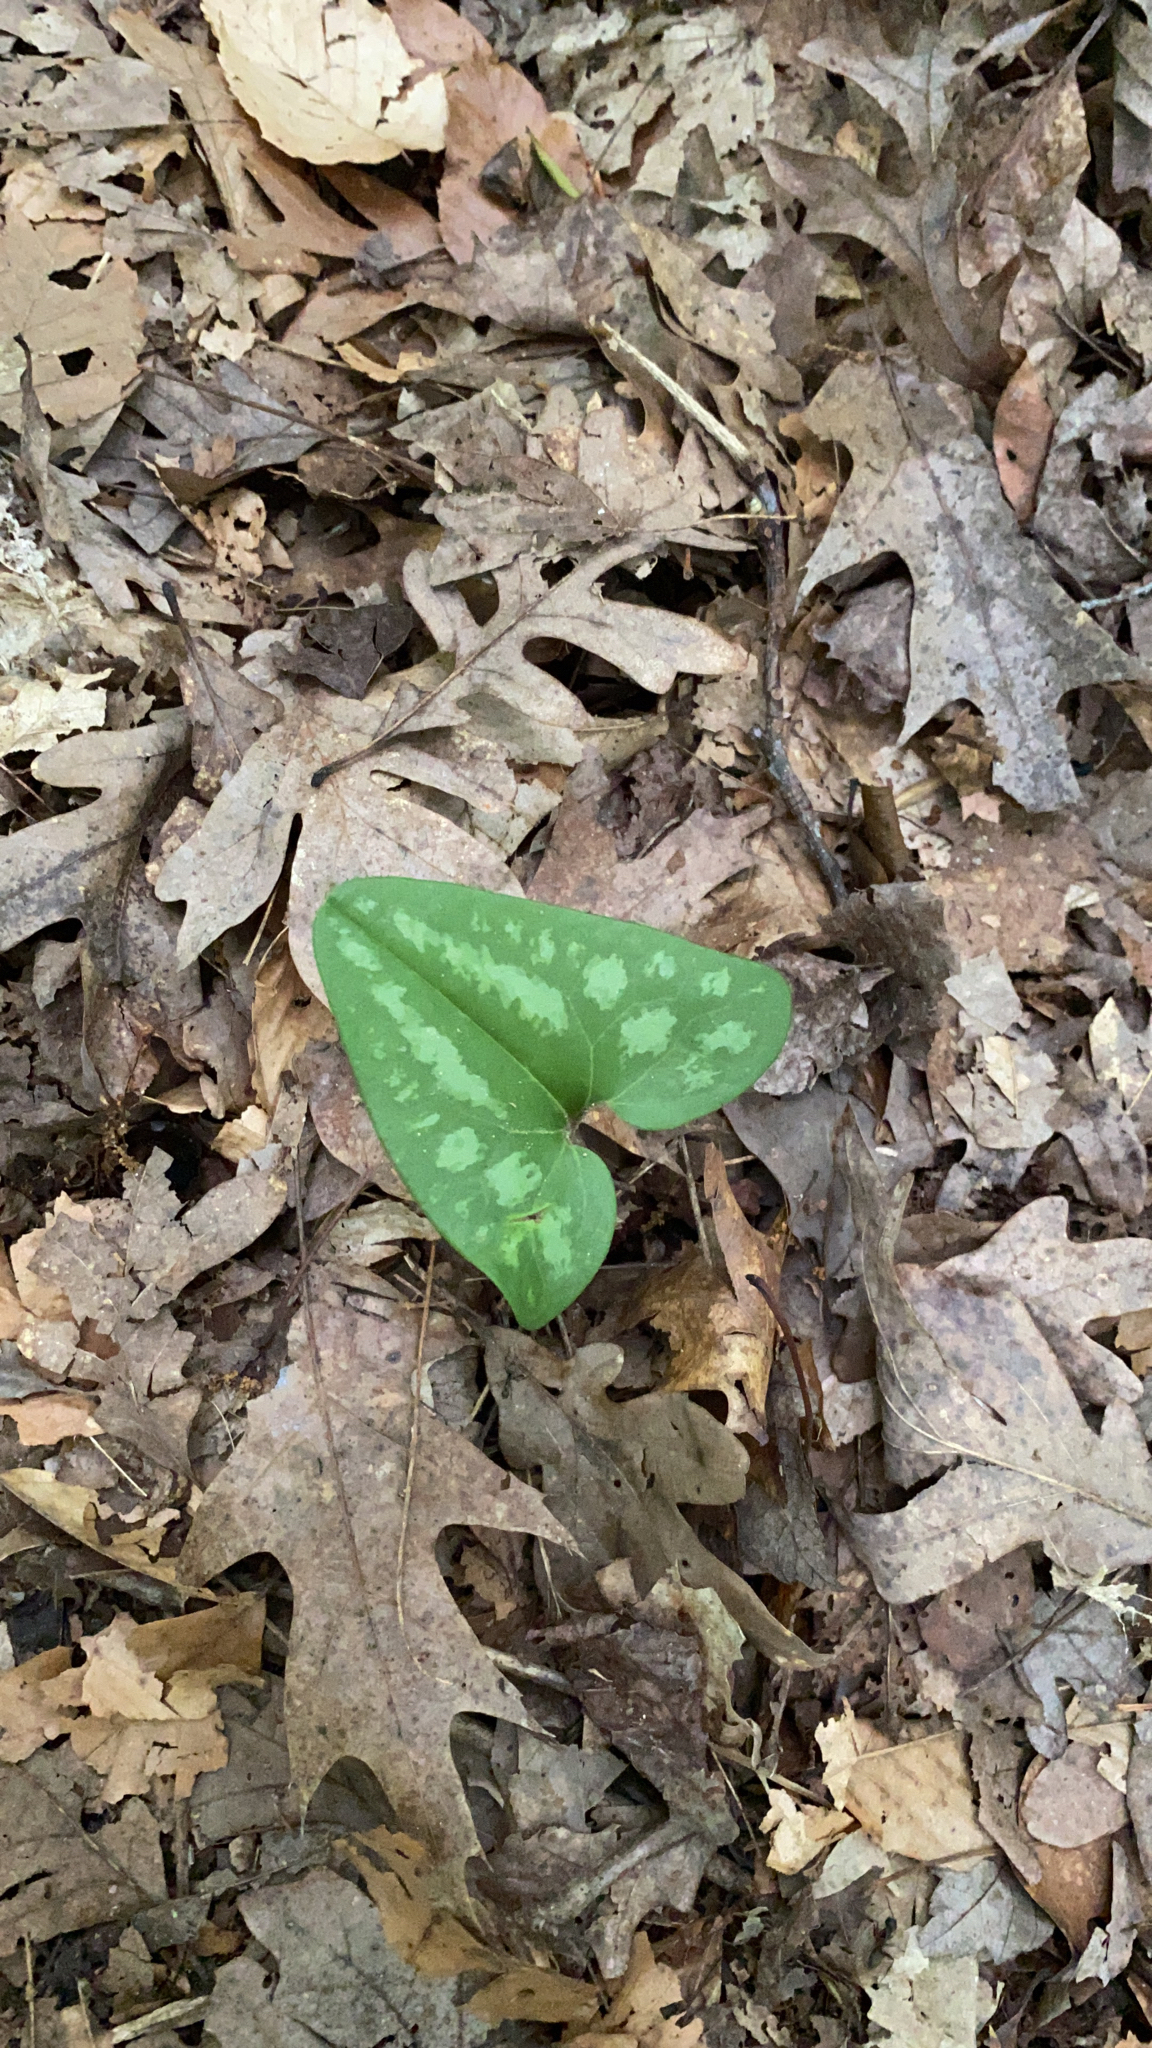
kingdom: Plantae
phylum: Tracheophyta
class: Magnoliopsida
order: Piperales
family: Aristolochiaceae
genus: Hexastylis
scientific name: Hexastylis arifolia
